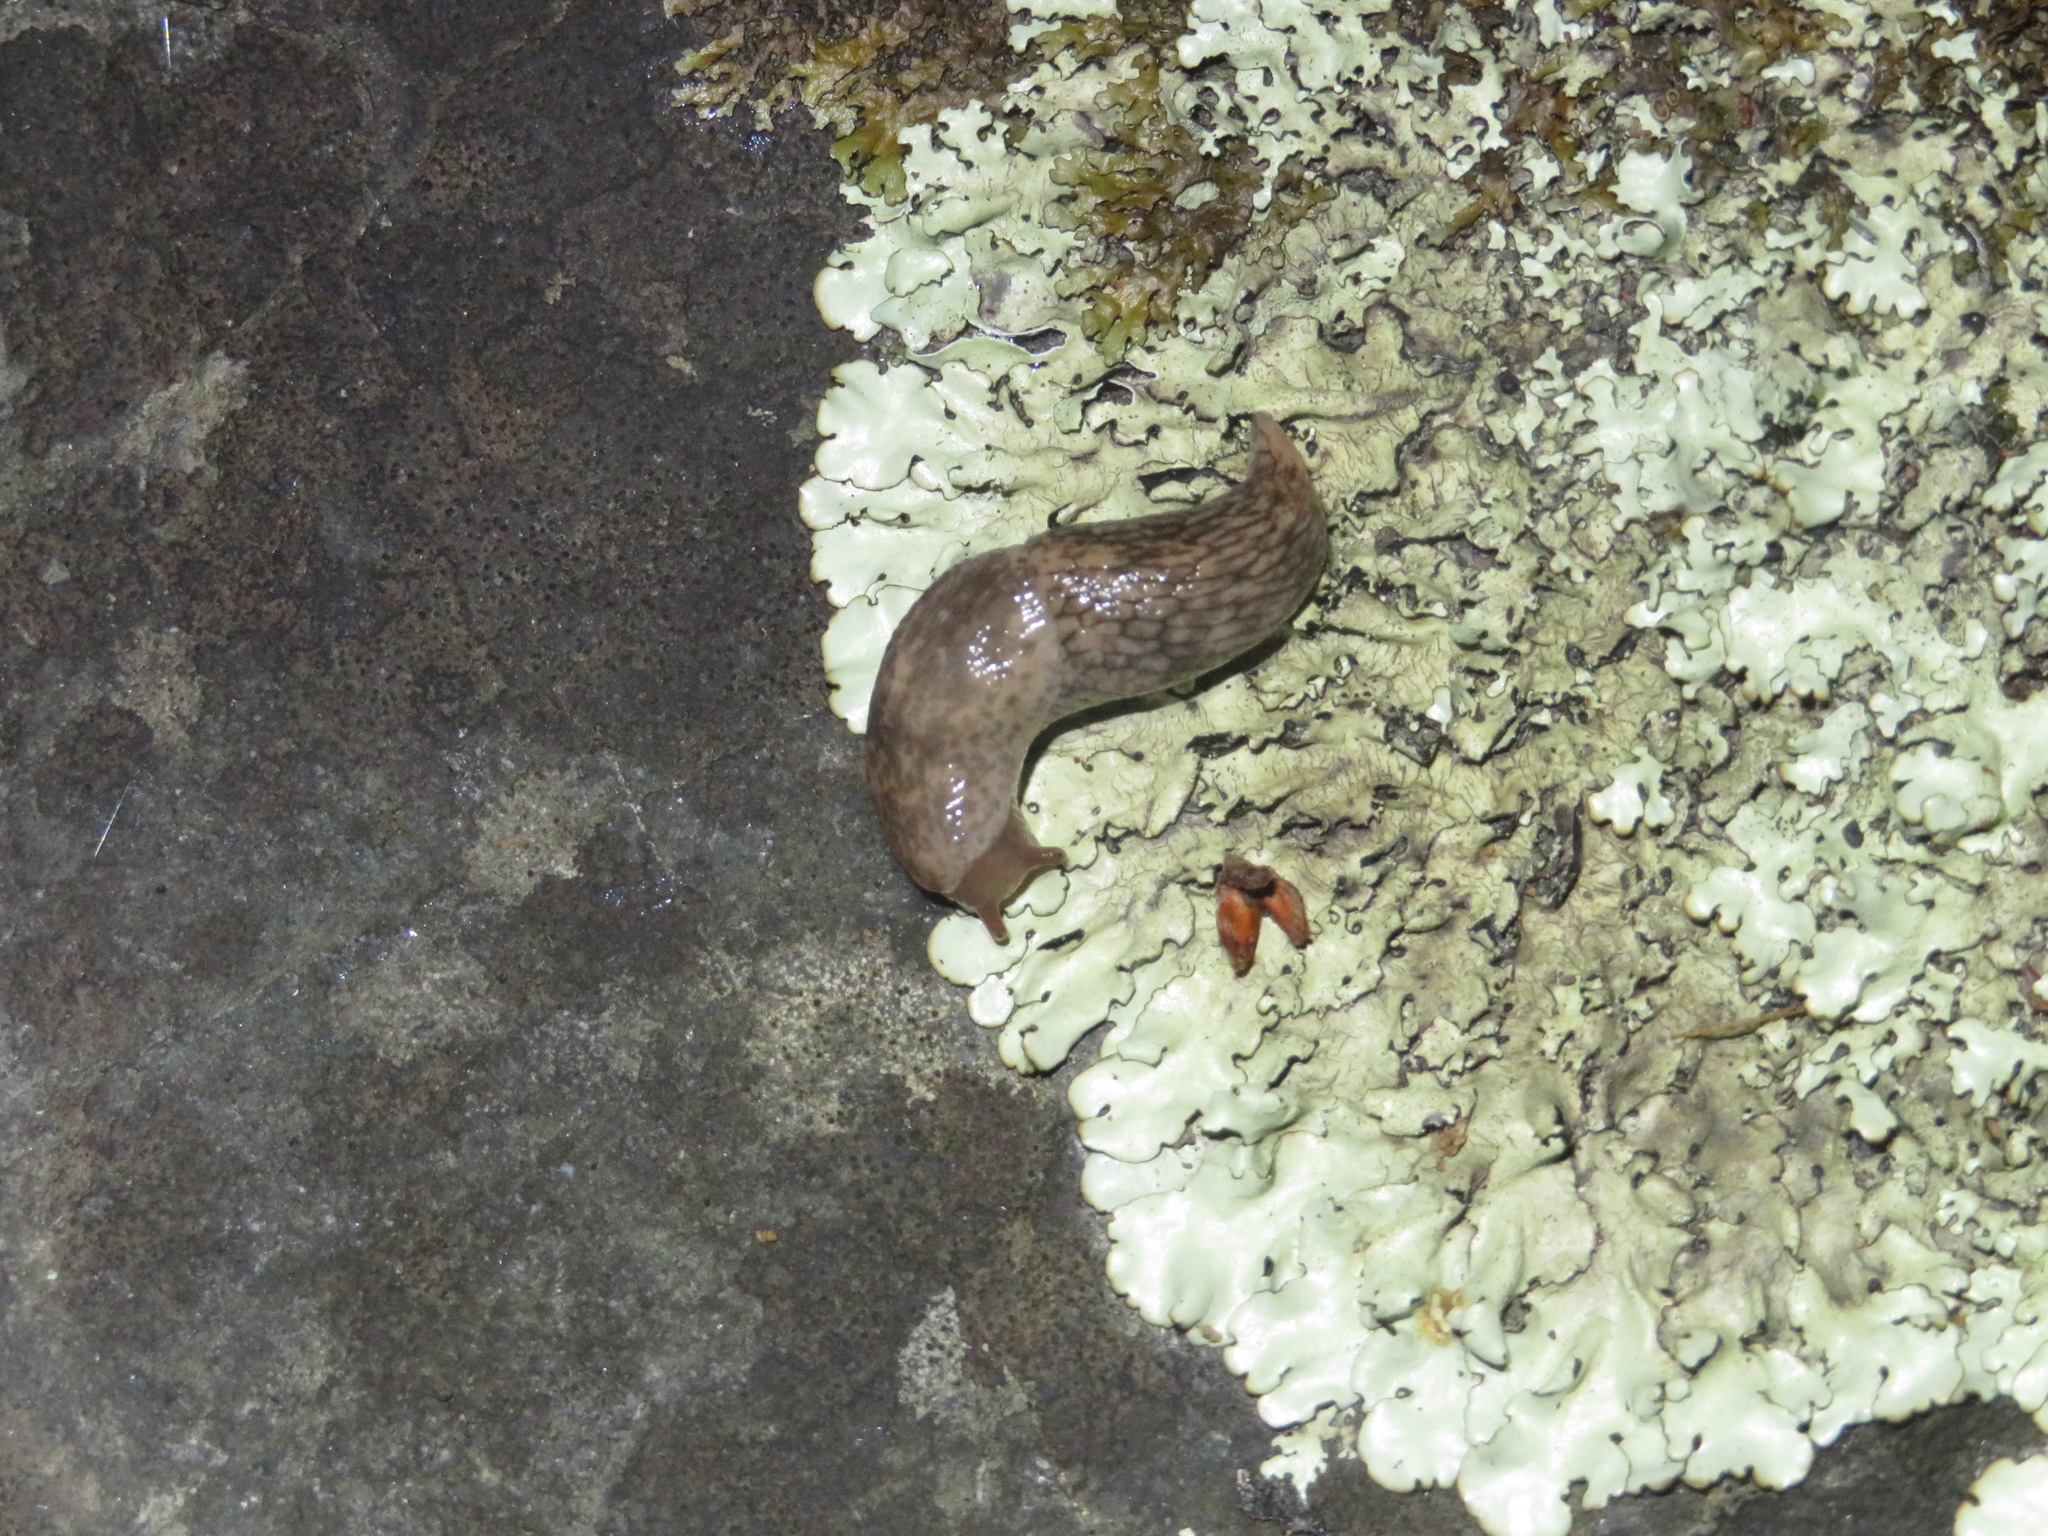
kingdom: Animalia
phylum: Mollusca
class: Gastropoda
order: Stylommatophora
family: Agriolimacidae
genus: Deroceras
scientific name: Deroceras reticulatum
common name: Gray field slug
